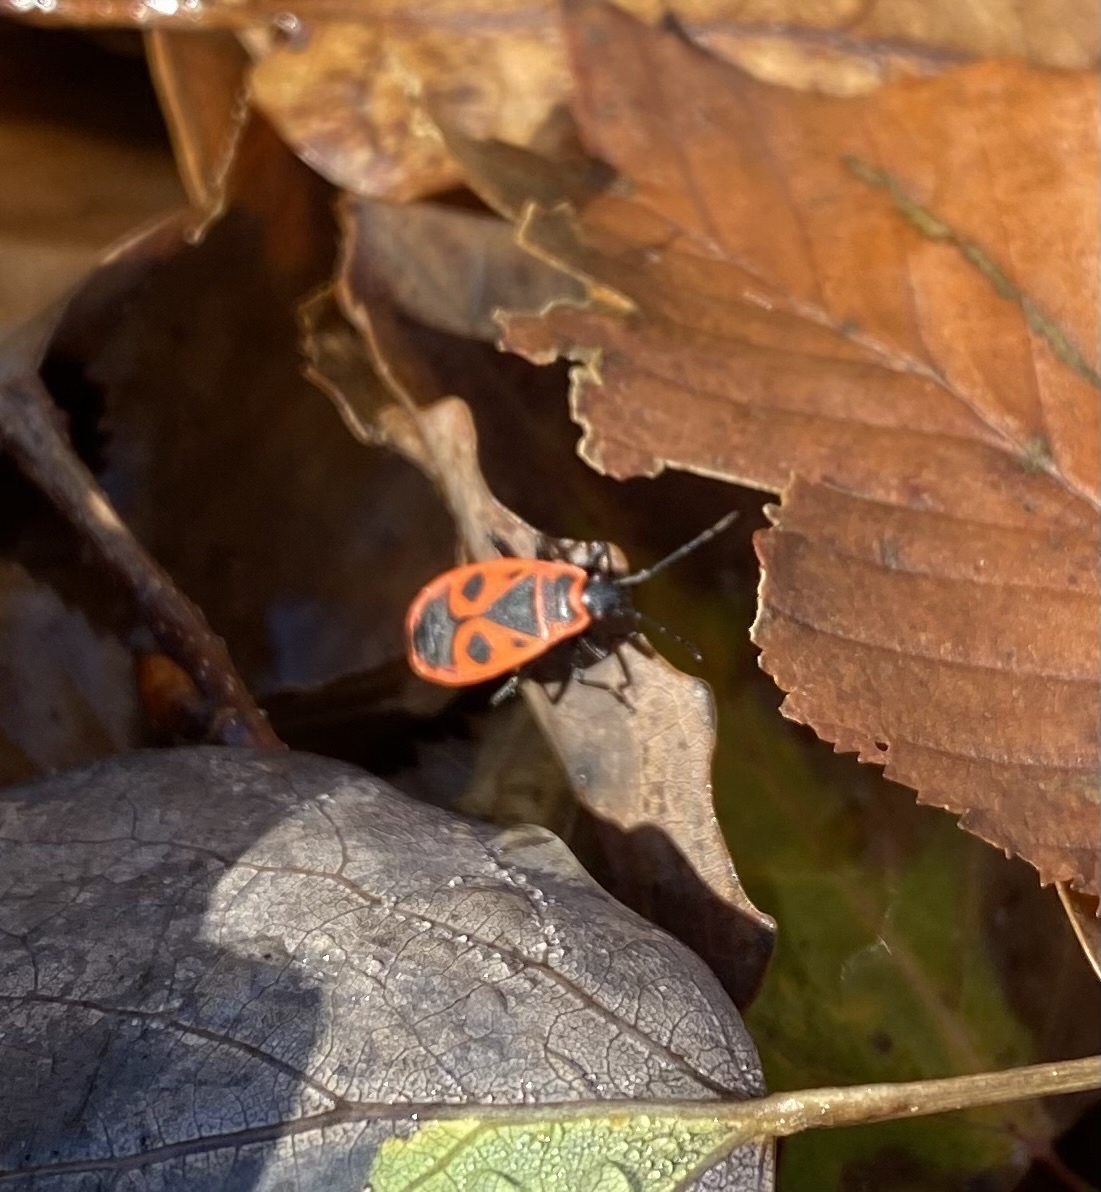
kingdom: Animalia
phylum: Arthropoda
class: Insecta
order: Hemiptera
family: Pyrrhocoridae
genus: Pyrrhocoris
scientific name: Pyrrhocoris apterus
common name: Firebug
